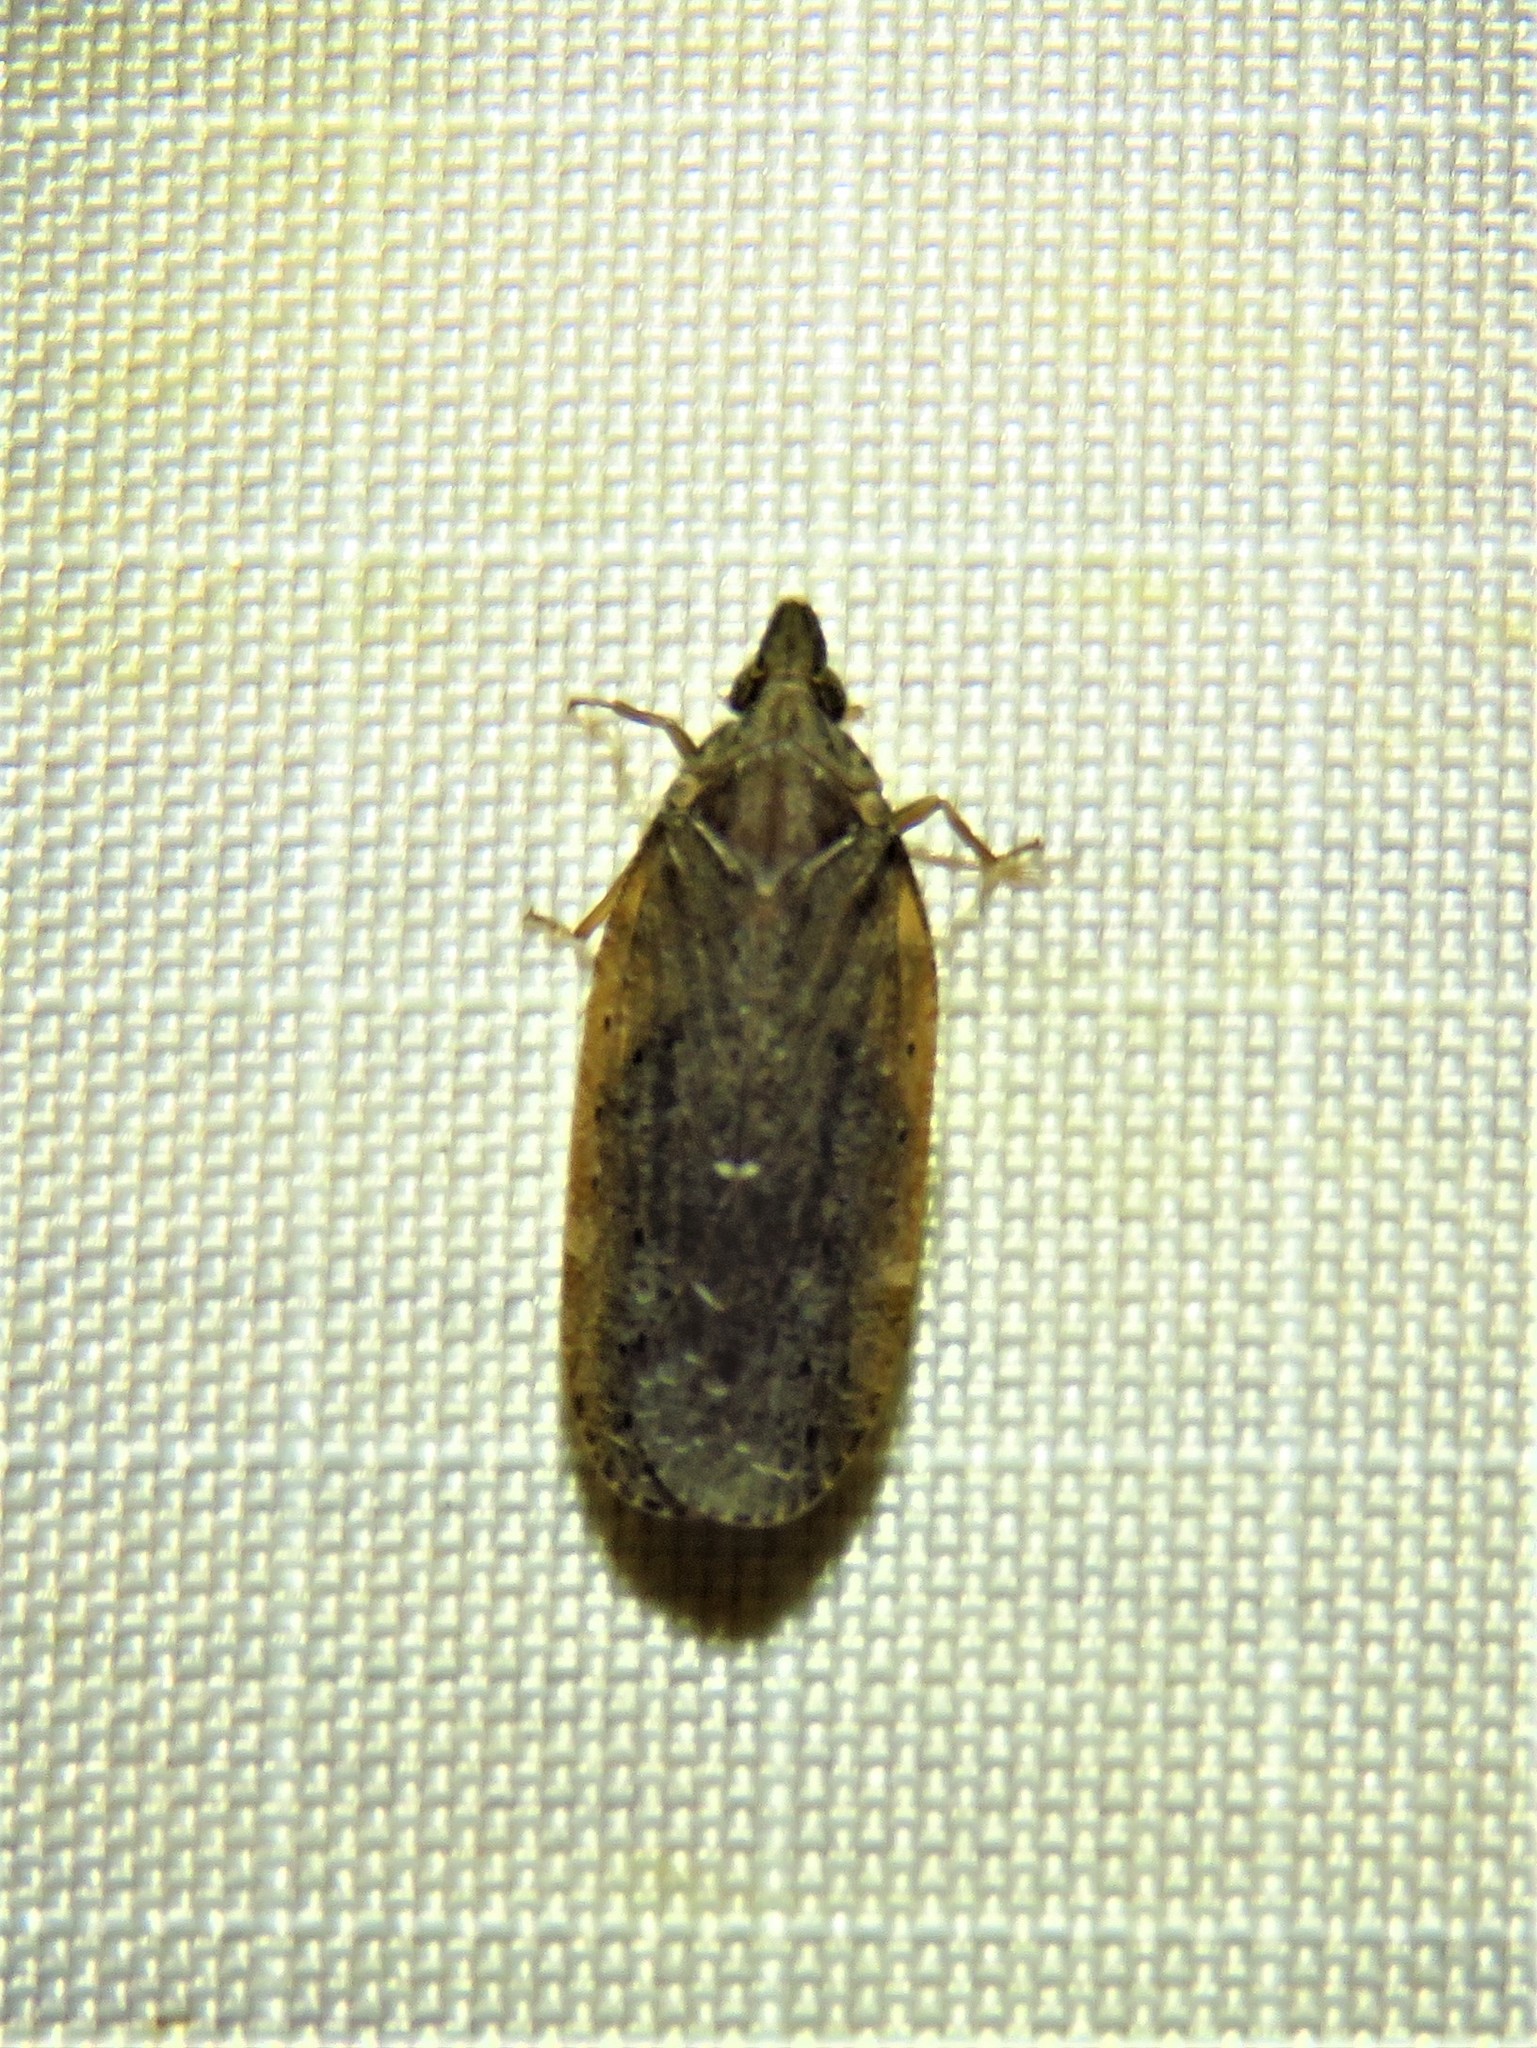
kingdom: Animalia
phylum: Arthropoda
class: Insecta
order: Hemiptera
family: Achilidae
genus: Cixidia
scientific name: Cixidia fusca
